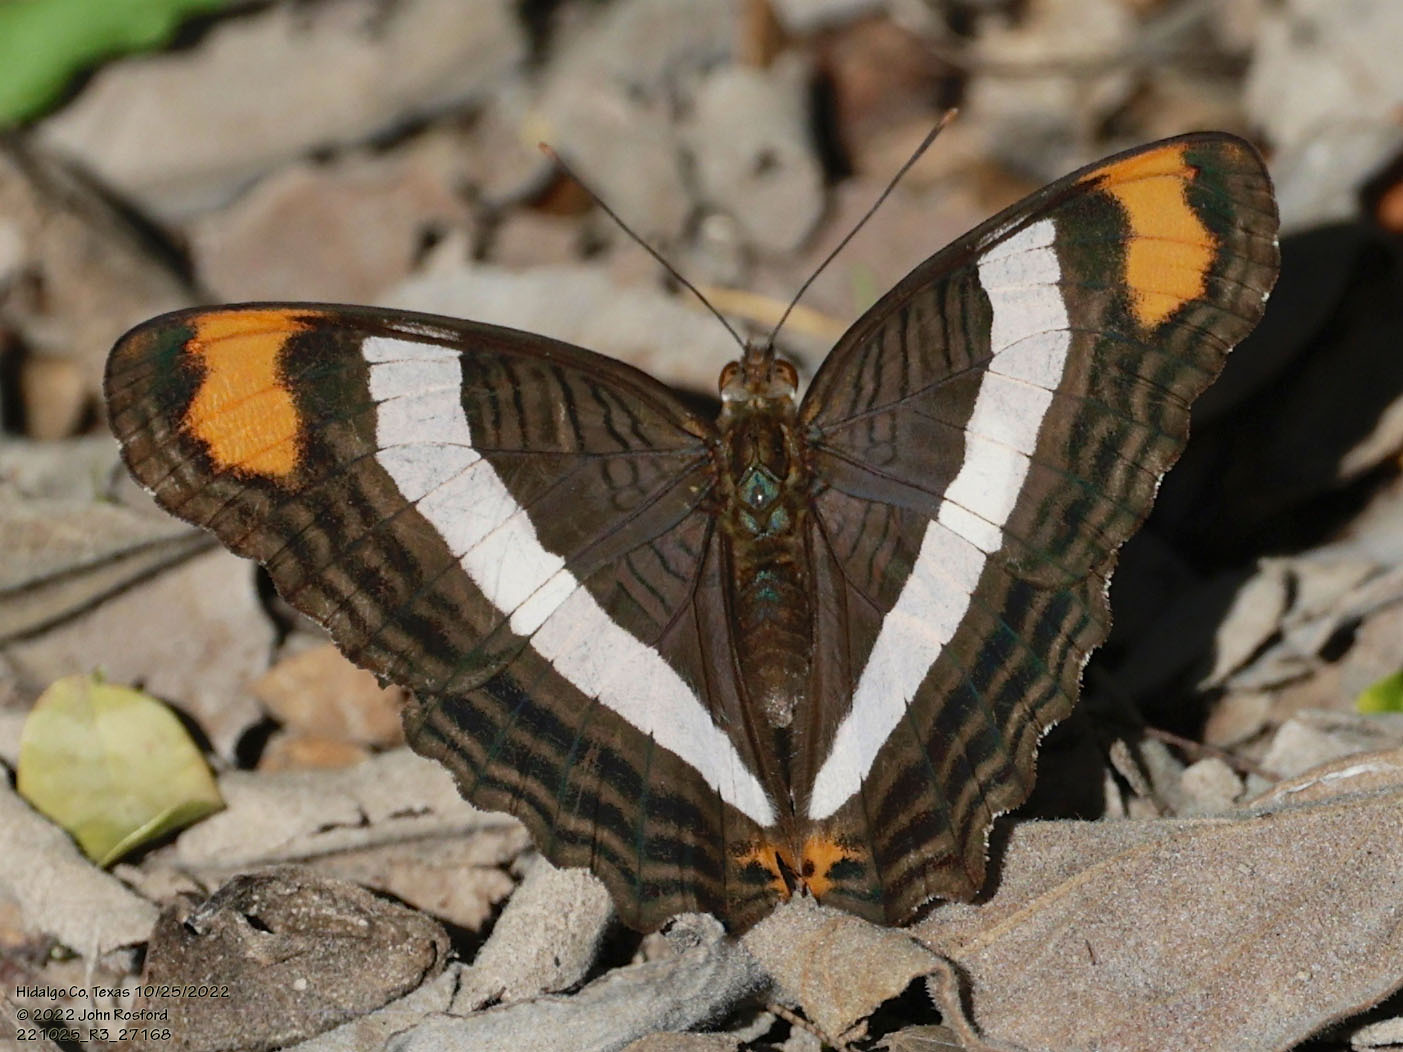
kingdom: Animalia
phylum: Arthropoda
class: Insecta
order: Lepidoptera
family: Nymphalidae
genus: Limenitis
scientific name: Limenitis fessonia
